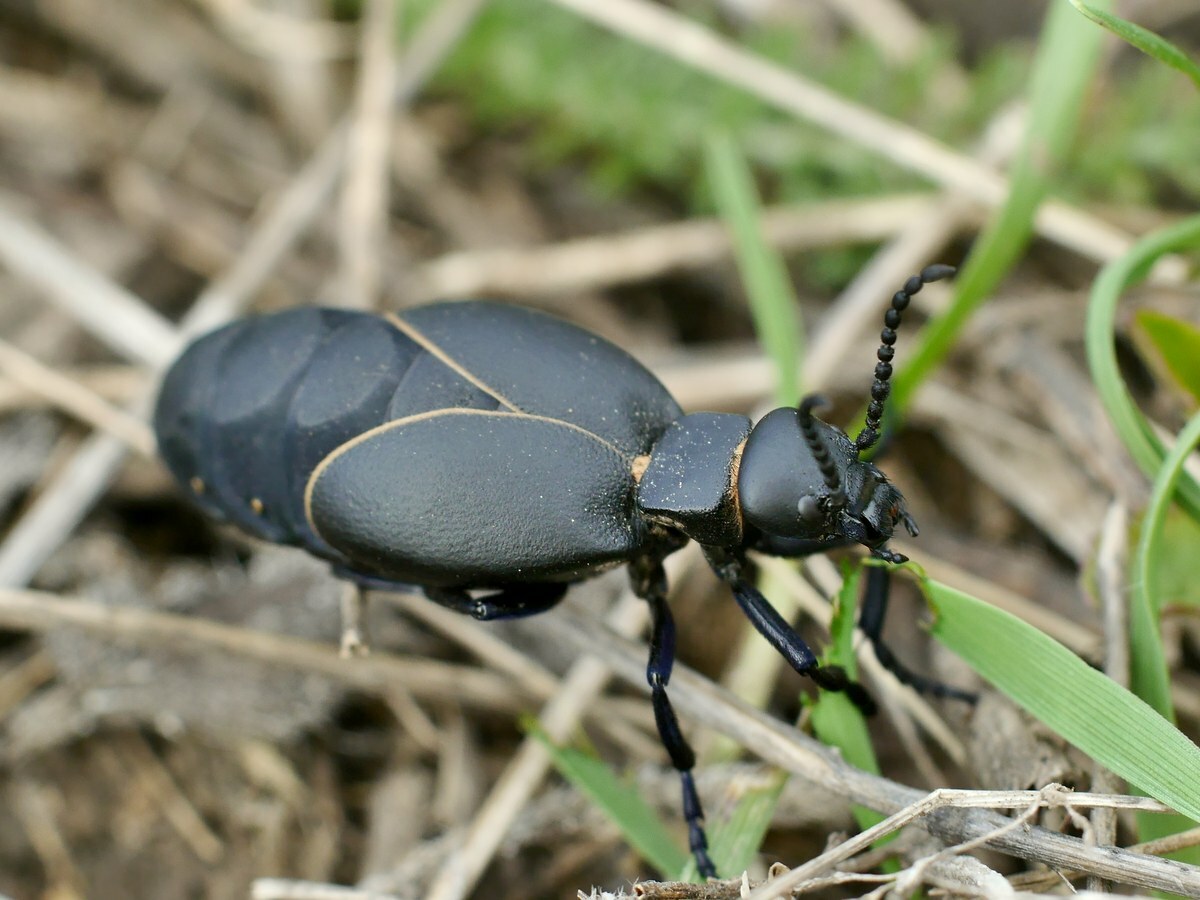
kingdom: Animalia
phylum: Arthropoda
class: Insecta
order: Coleoptera
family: Meloidae
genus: Meloe
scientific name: Meloe hungarus
